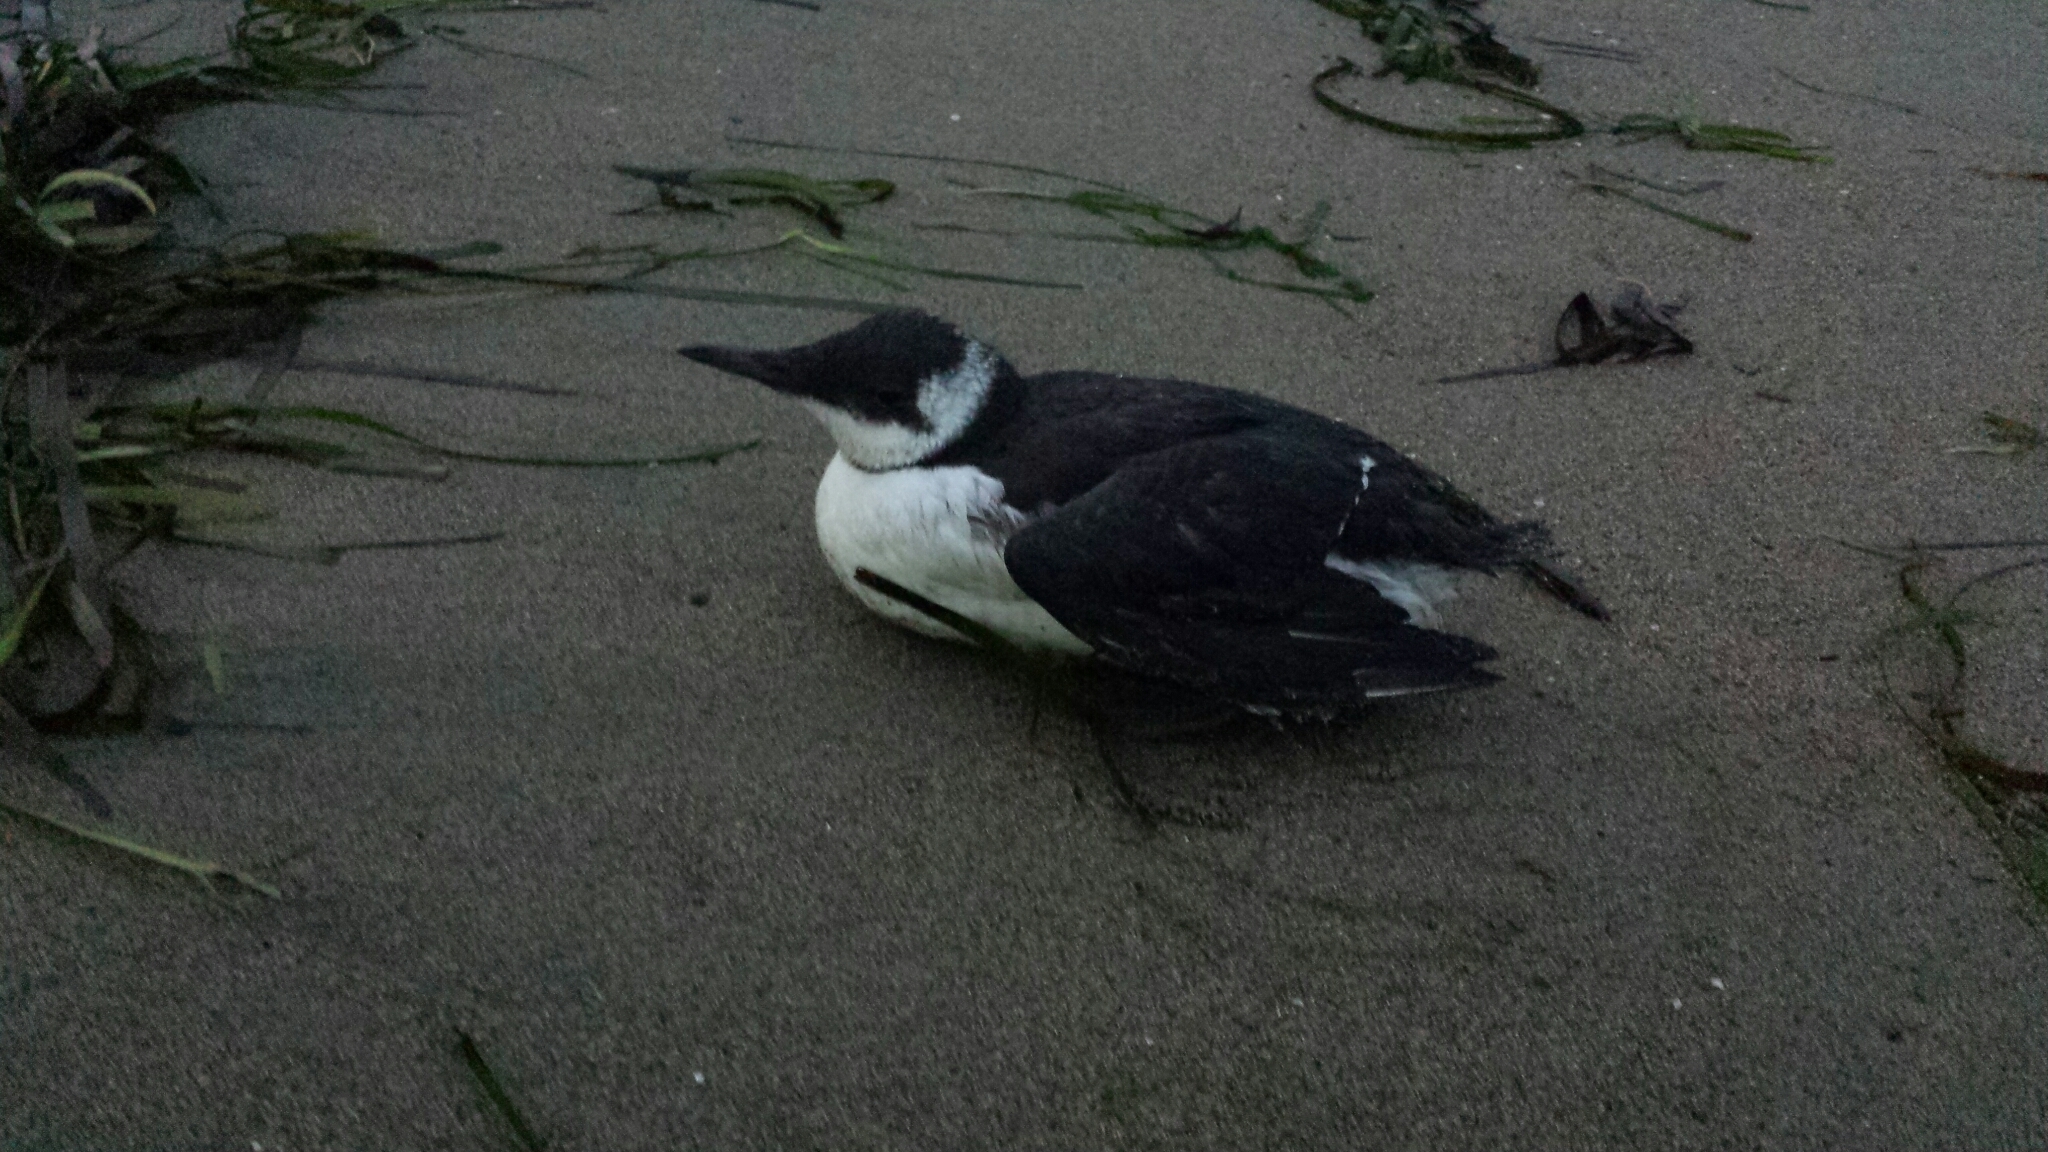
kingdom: Animalia
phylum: Chordata
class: Aves
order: Charadriiformes
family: Alcidae
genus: Uria
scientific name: Uria aalge
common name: Common murre
